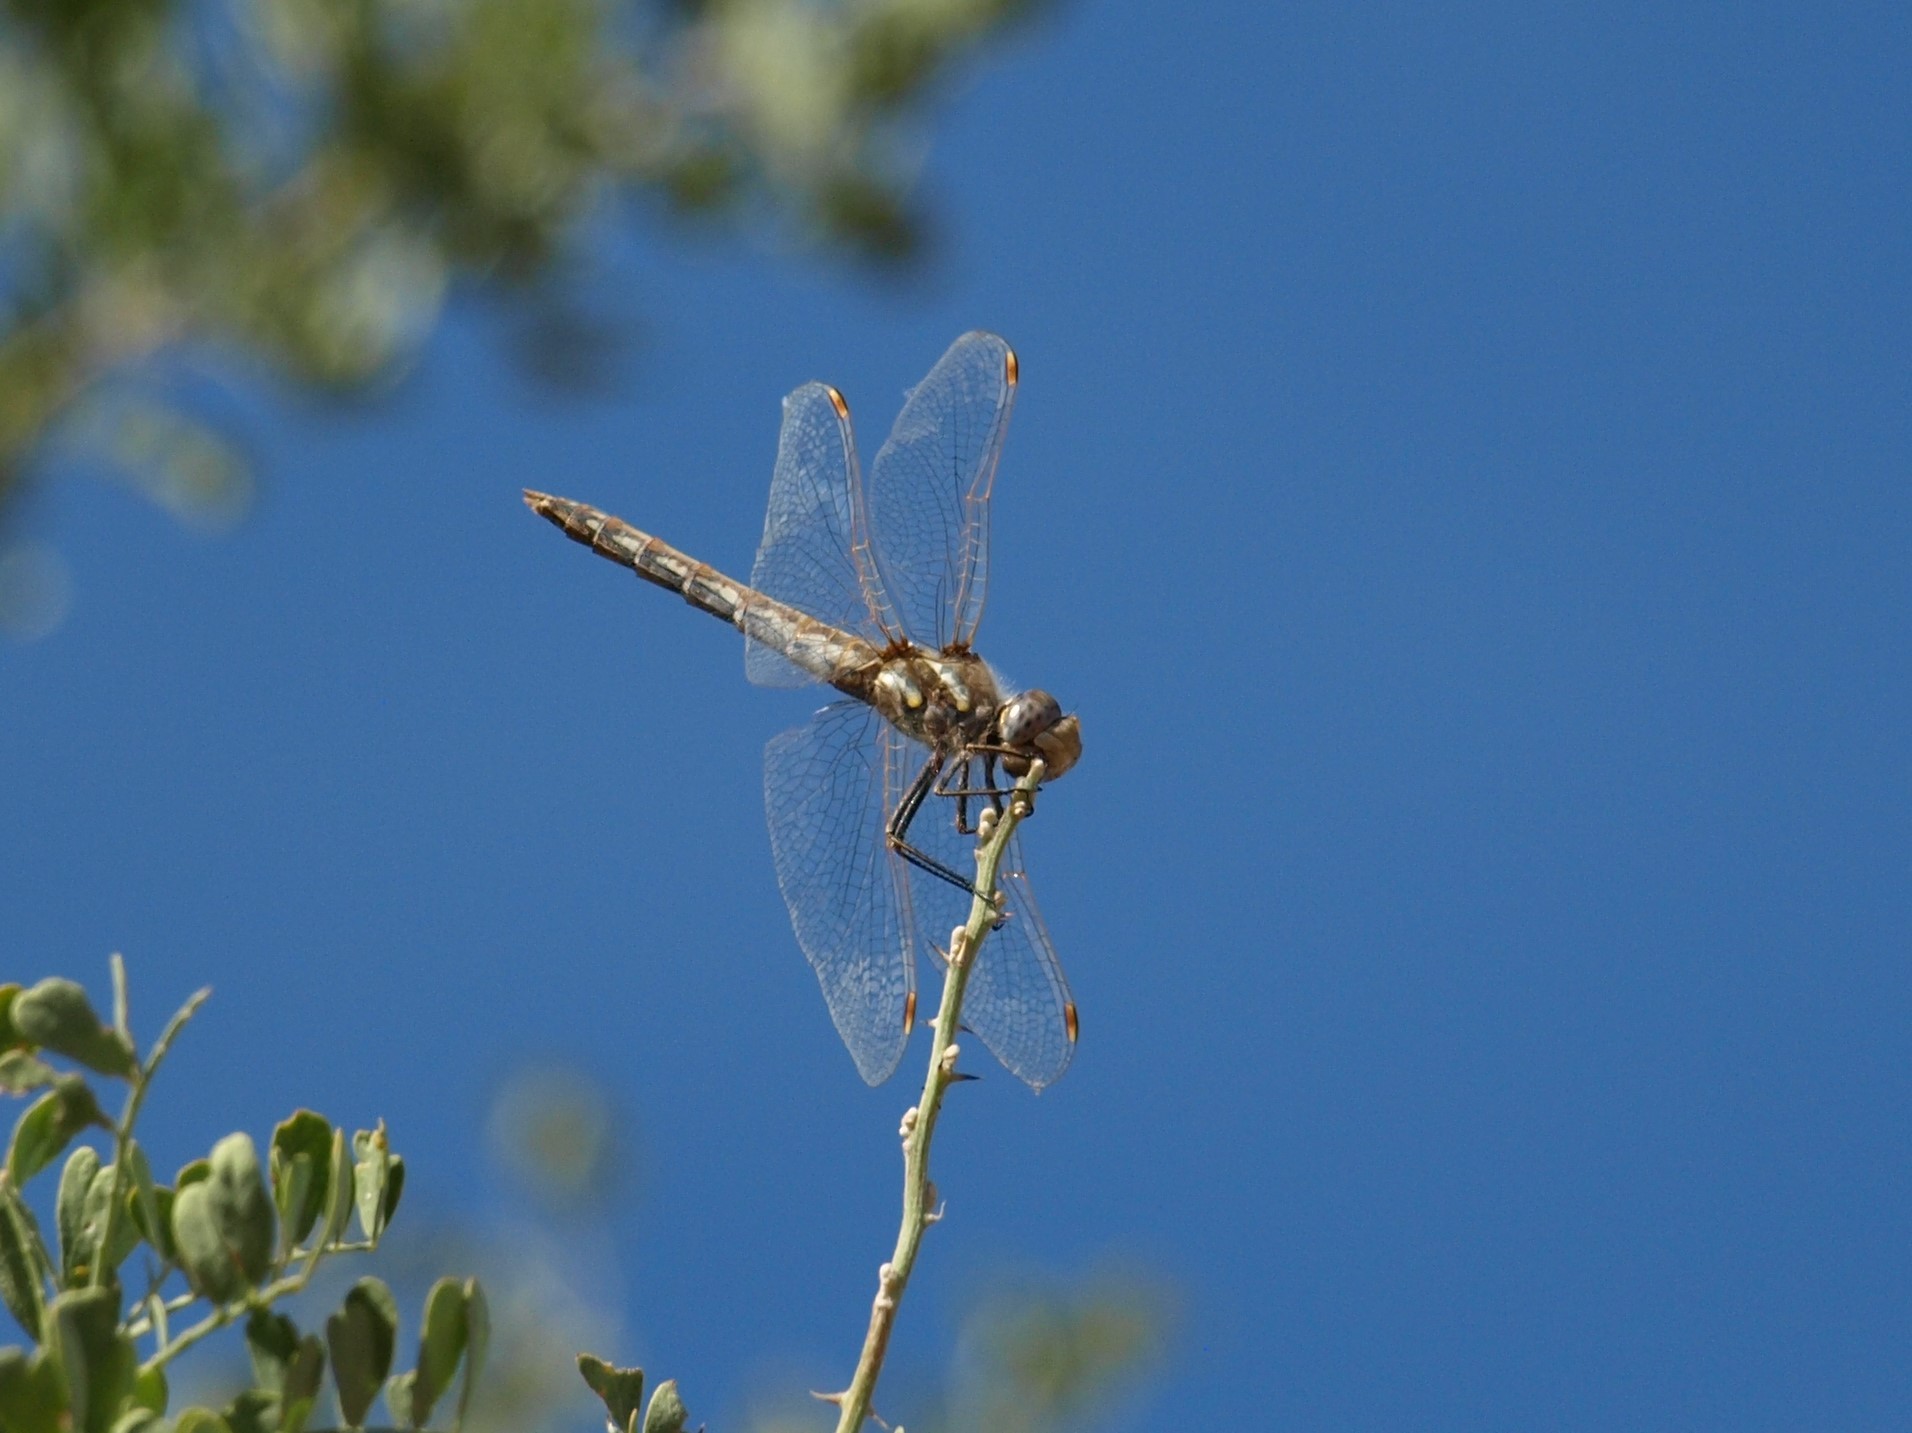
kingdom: Animalia
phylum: Arthropoda
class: Insecta
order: Odonata
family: Libellulidae
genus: Sympetrum
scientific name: Sympetrum corruptum
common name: Variegated meadowhawk
